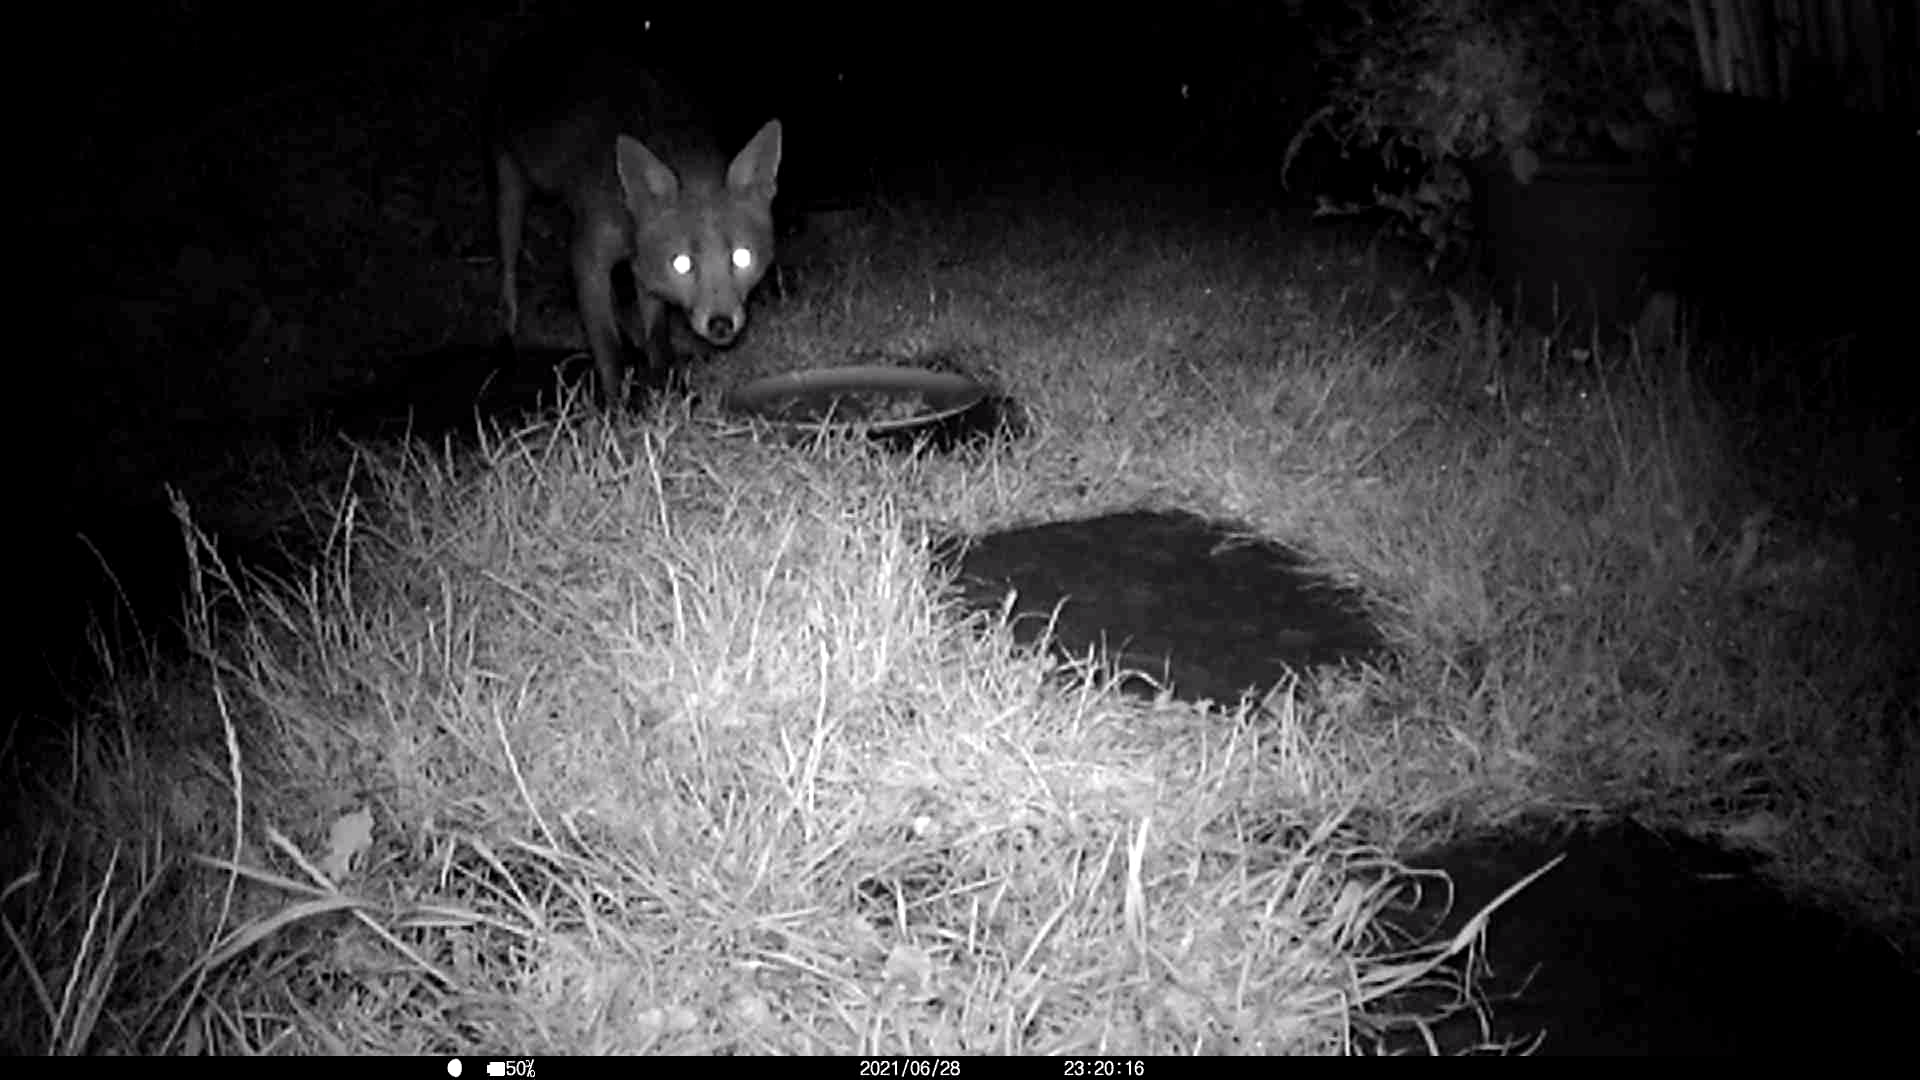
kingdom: Animalia
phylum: Chordata
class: Mammalia
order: Carnivora
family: Canidae
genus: Vulpes
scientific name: Vulpes vulpes
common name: Red fox
